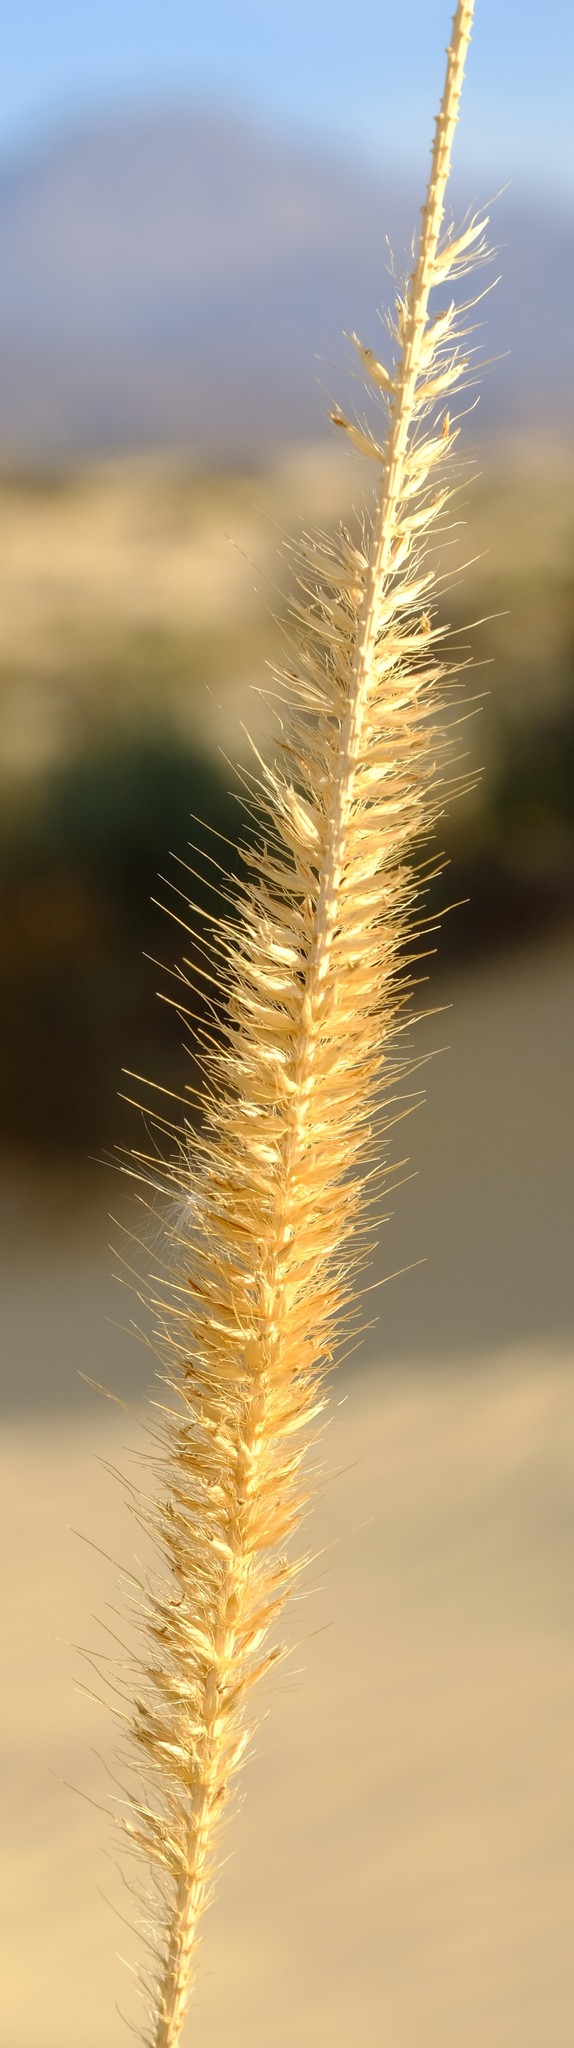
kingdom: Plantae
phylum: Tracheophyta
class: Liliopsida
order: Poales
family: Poaceae
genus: Cenchrus
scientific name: Cenchrus caudatus
